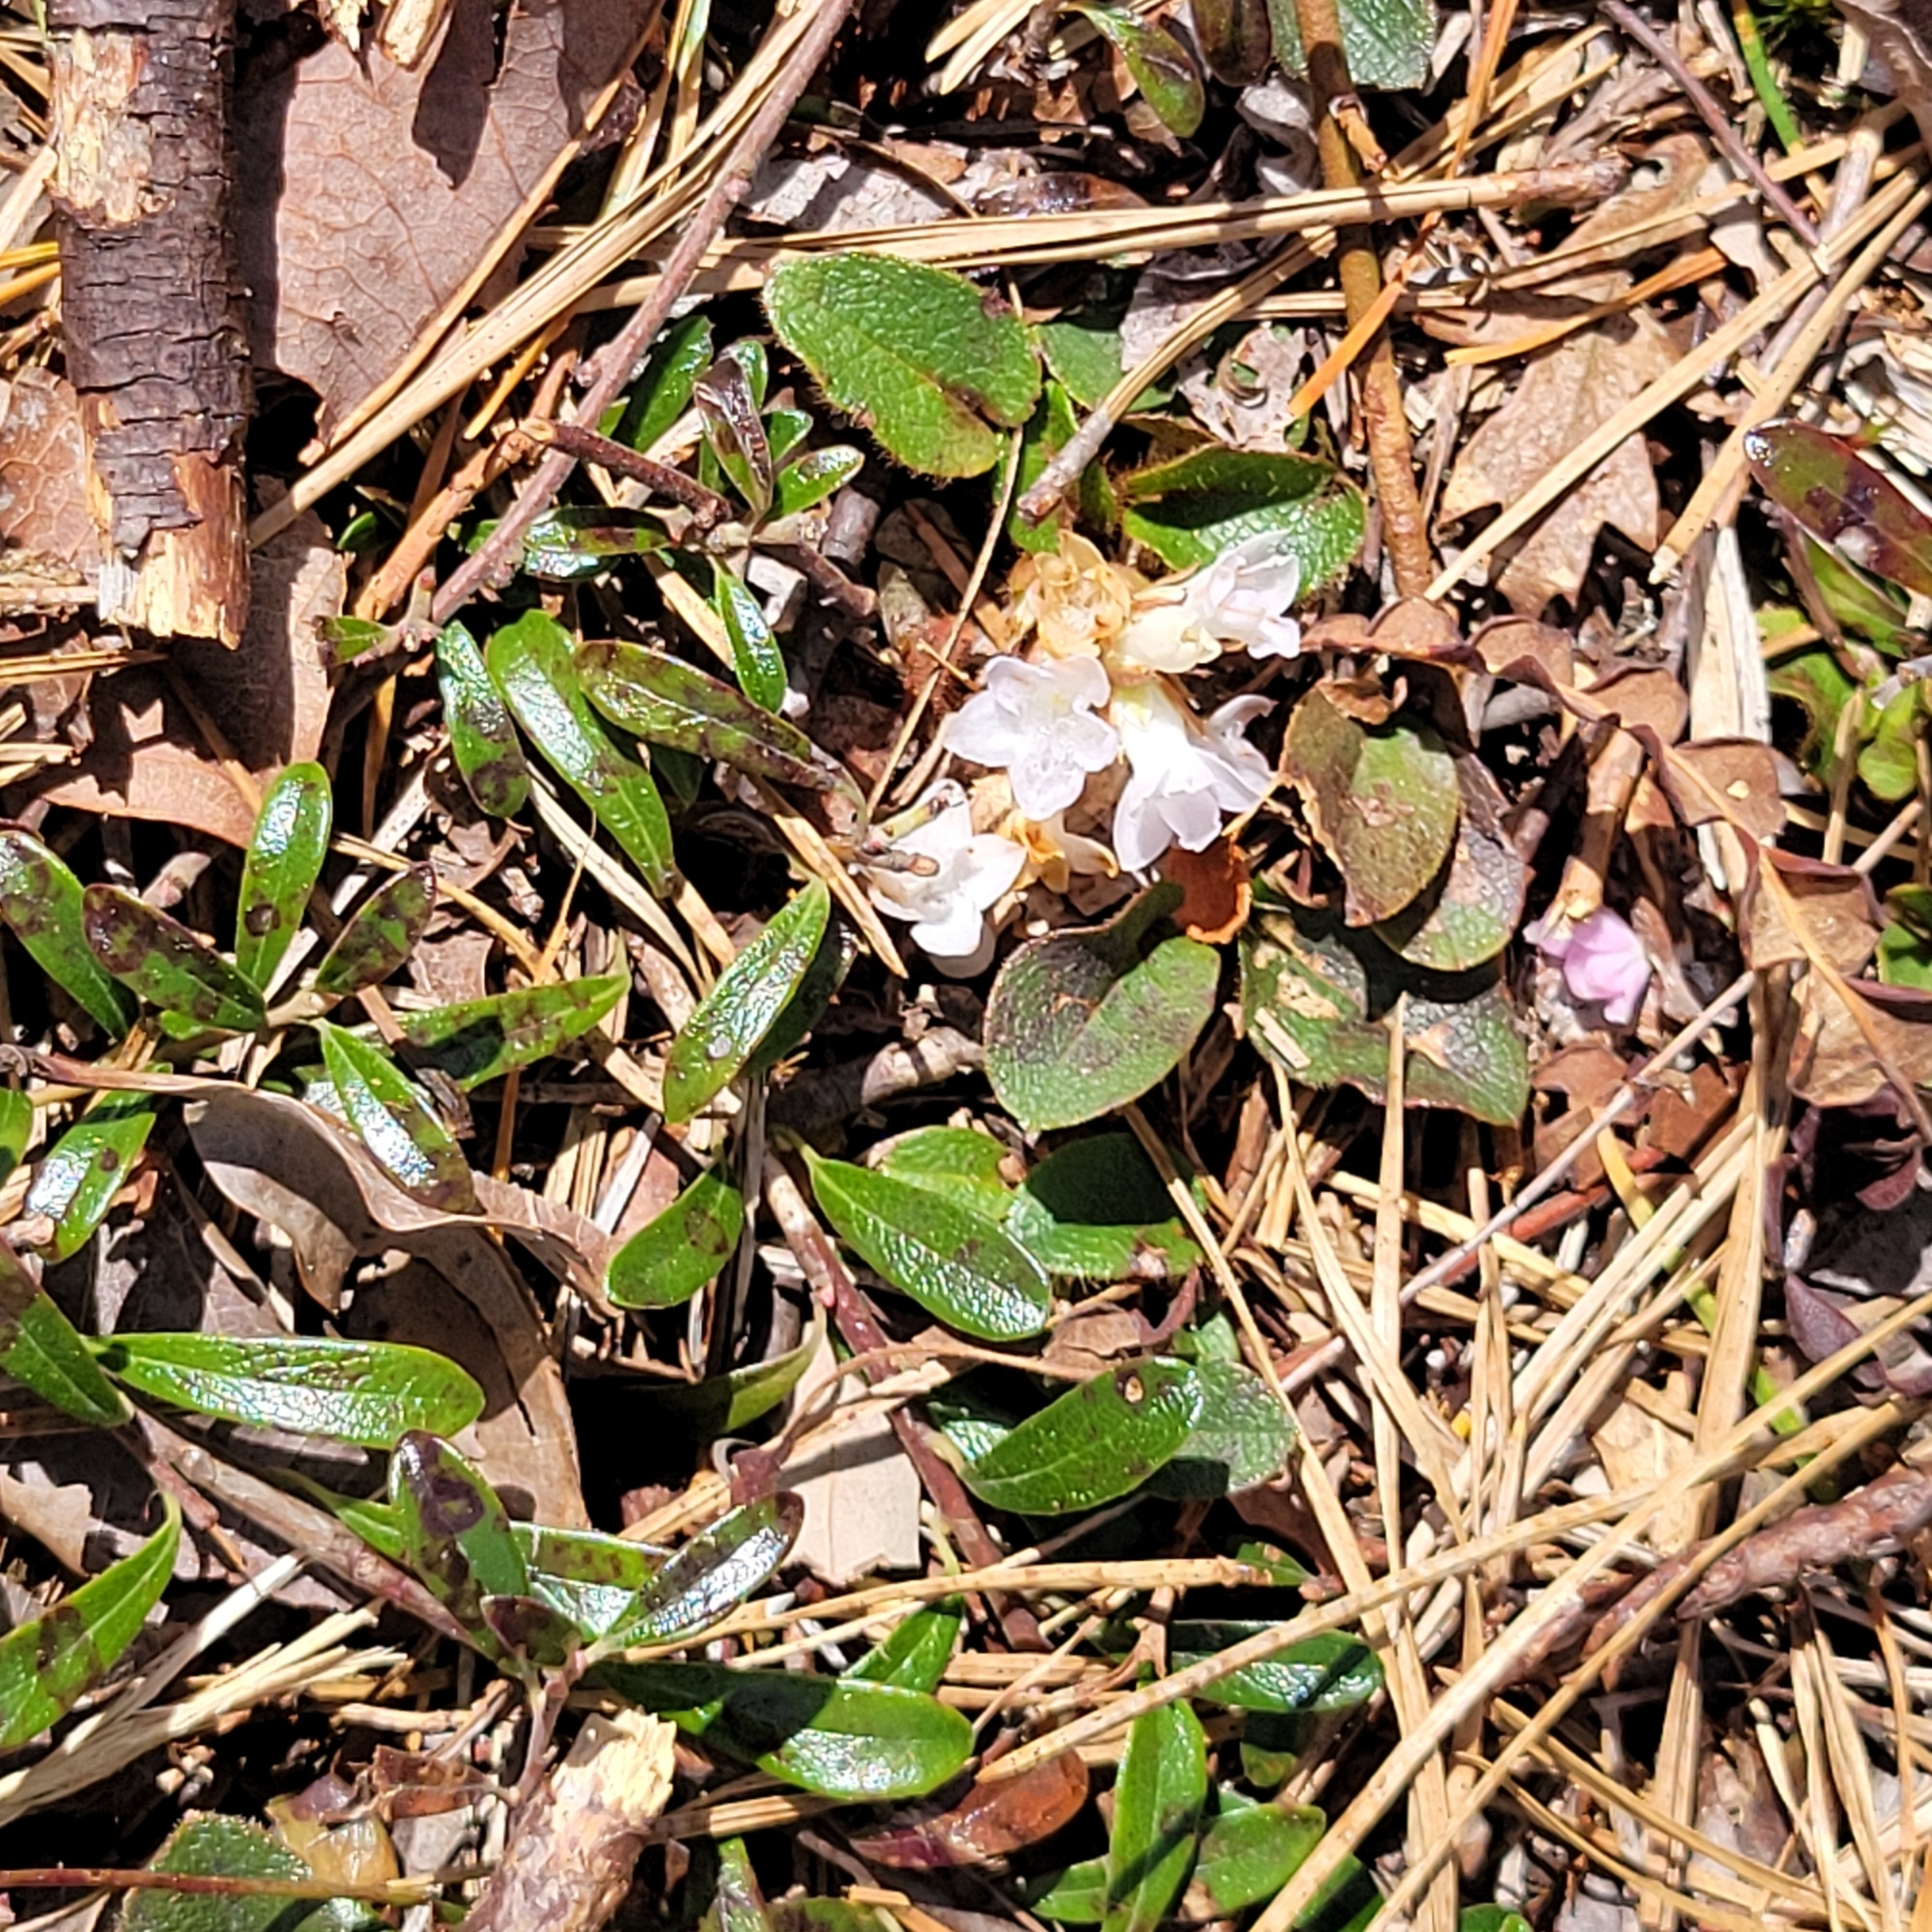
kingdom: Plantae
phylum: Tracheophyta
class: Magnoliopsida
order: Ericales
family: Ericaceae
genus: Epigaea
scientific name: Epigaea repens
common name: Gravelroot
